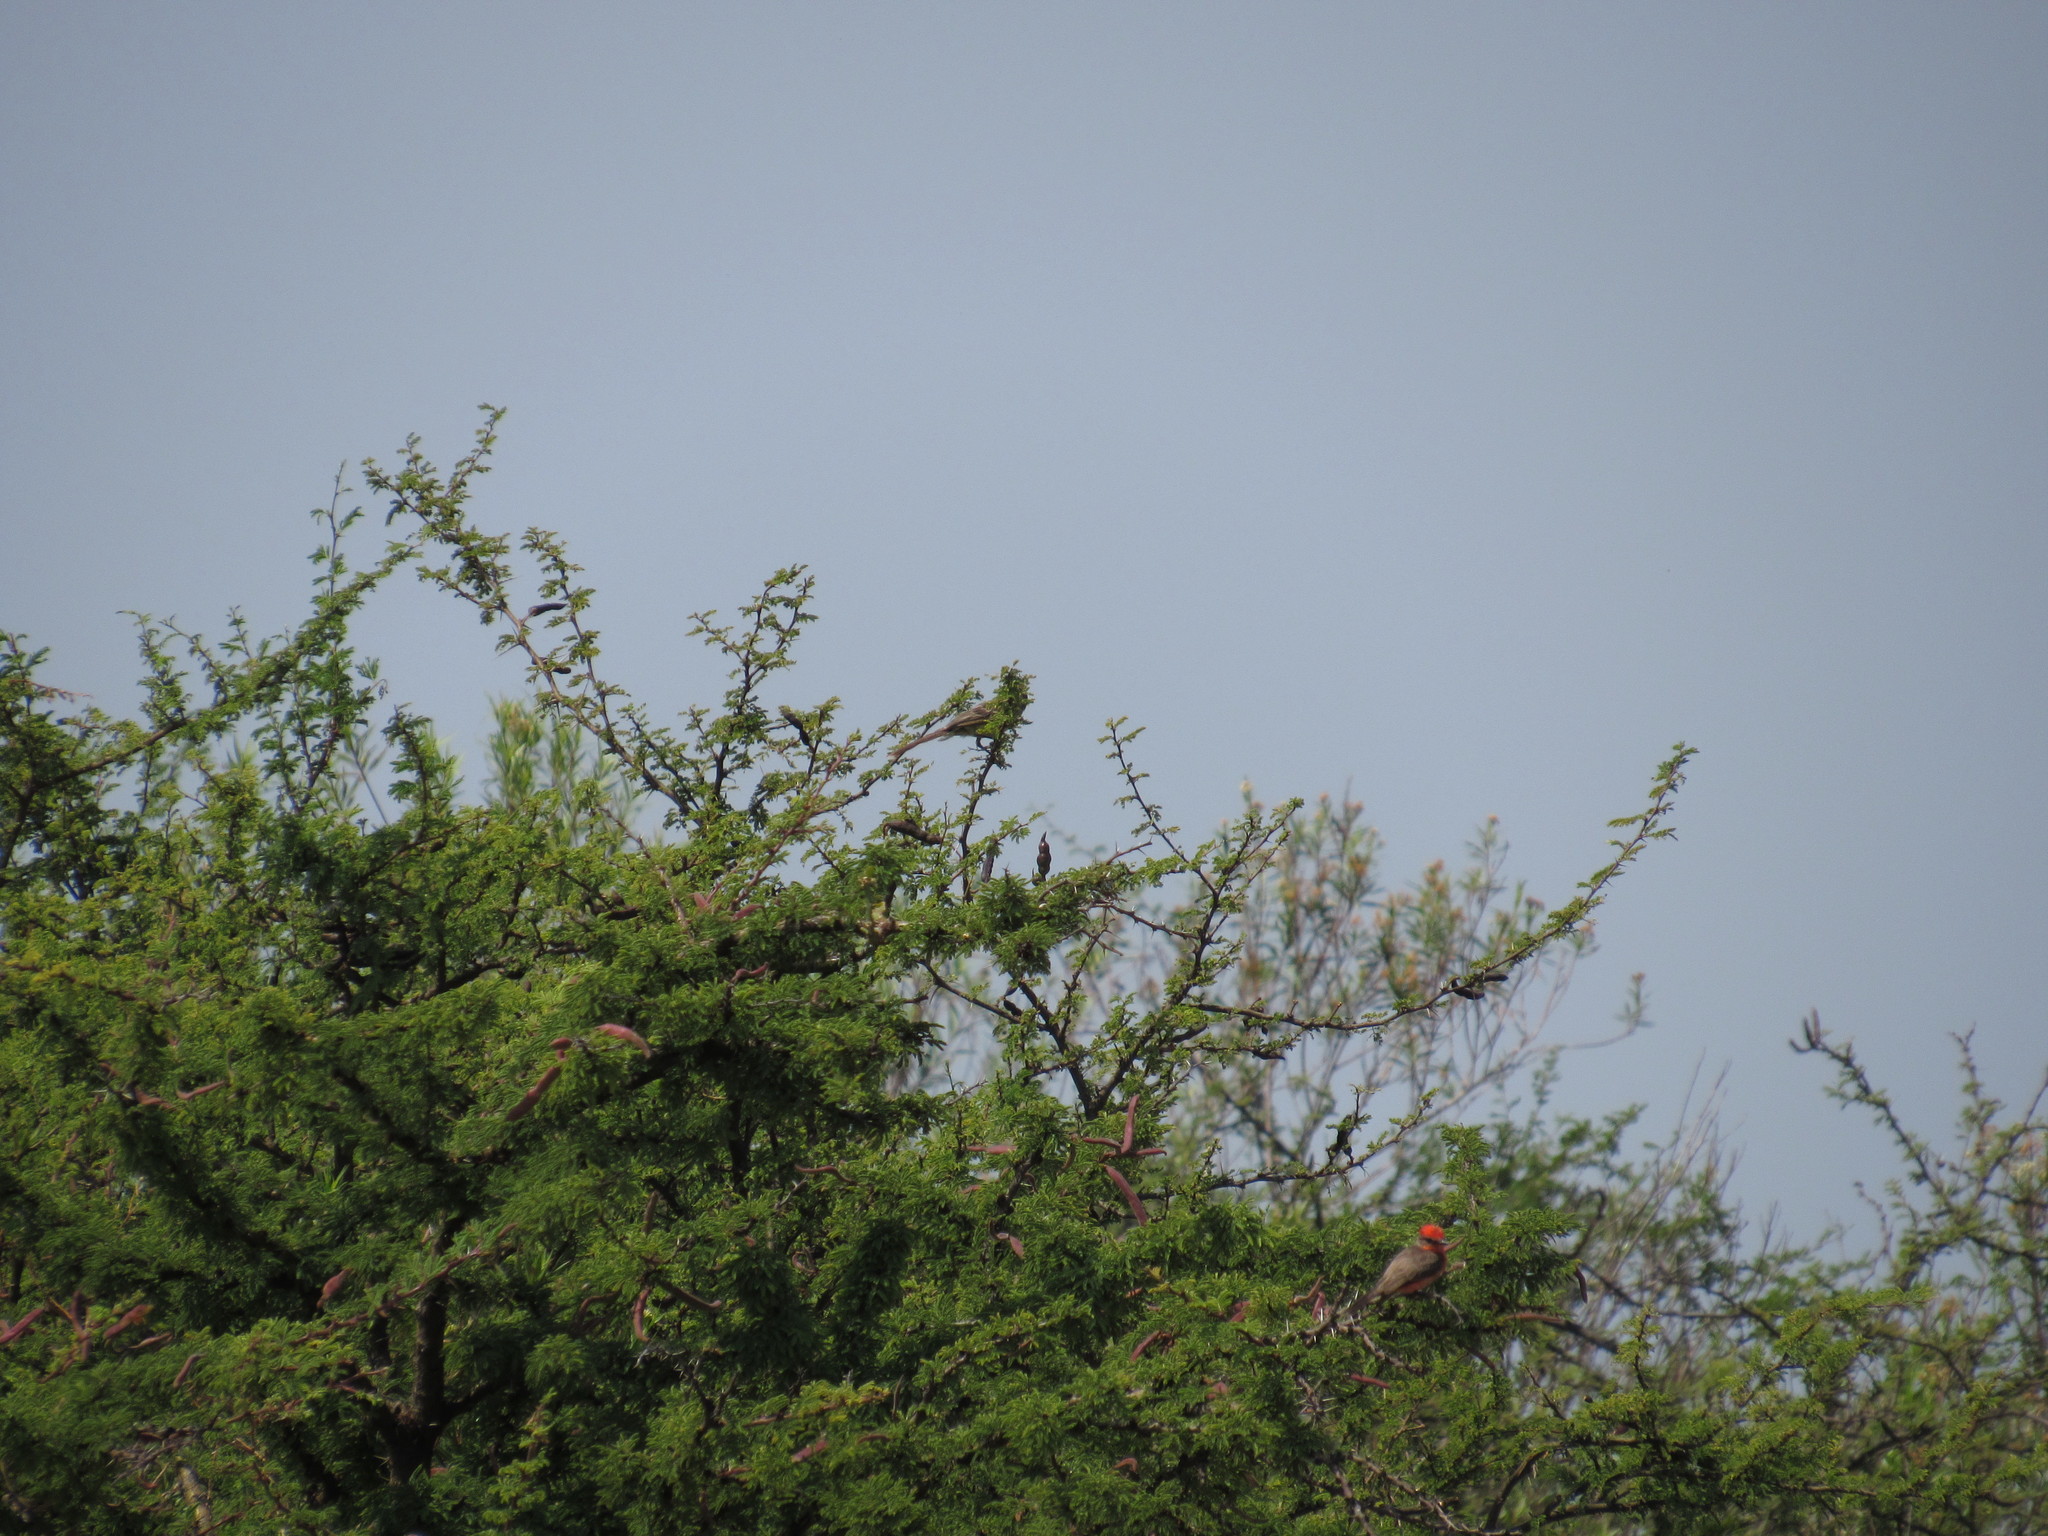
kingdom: Animalia
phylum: Chordata
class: Aves
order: Passeriformes
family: Tyrannidae
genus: Pyrocephalus
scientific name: Pyrocephalus rubinus
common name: Vermilion flycatcher
